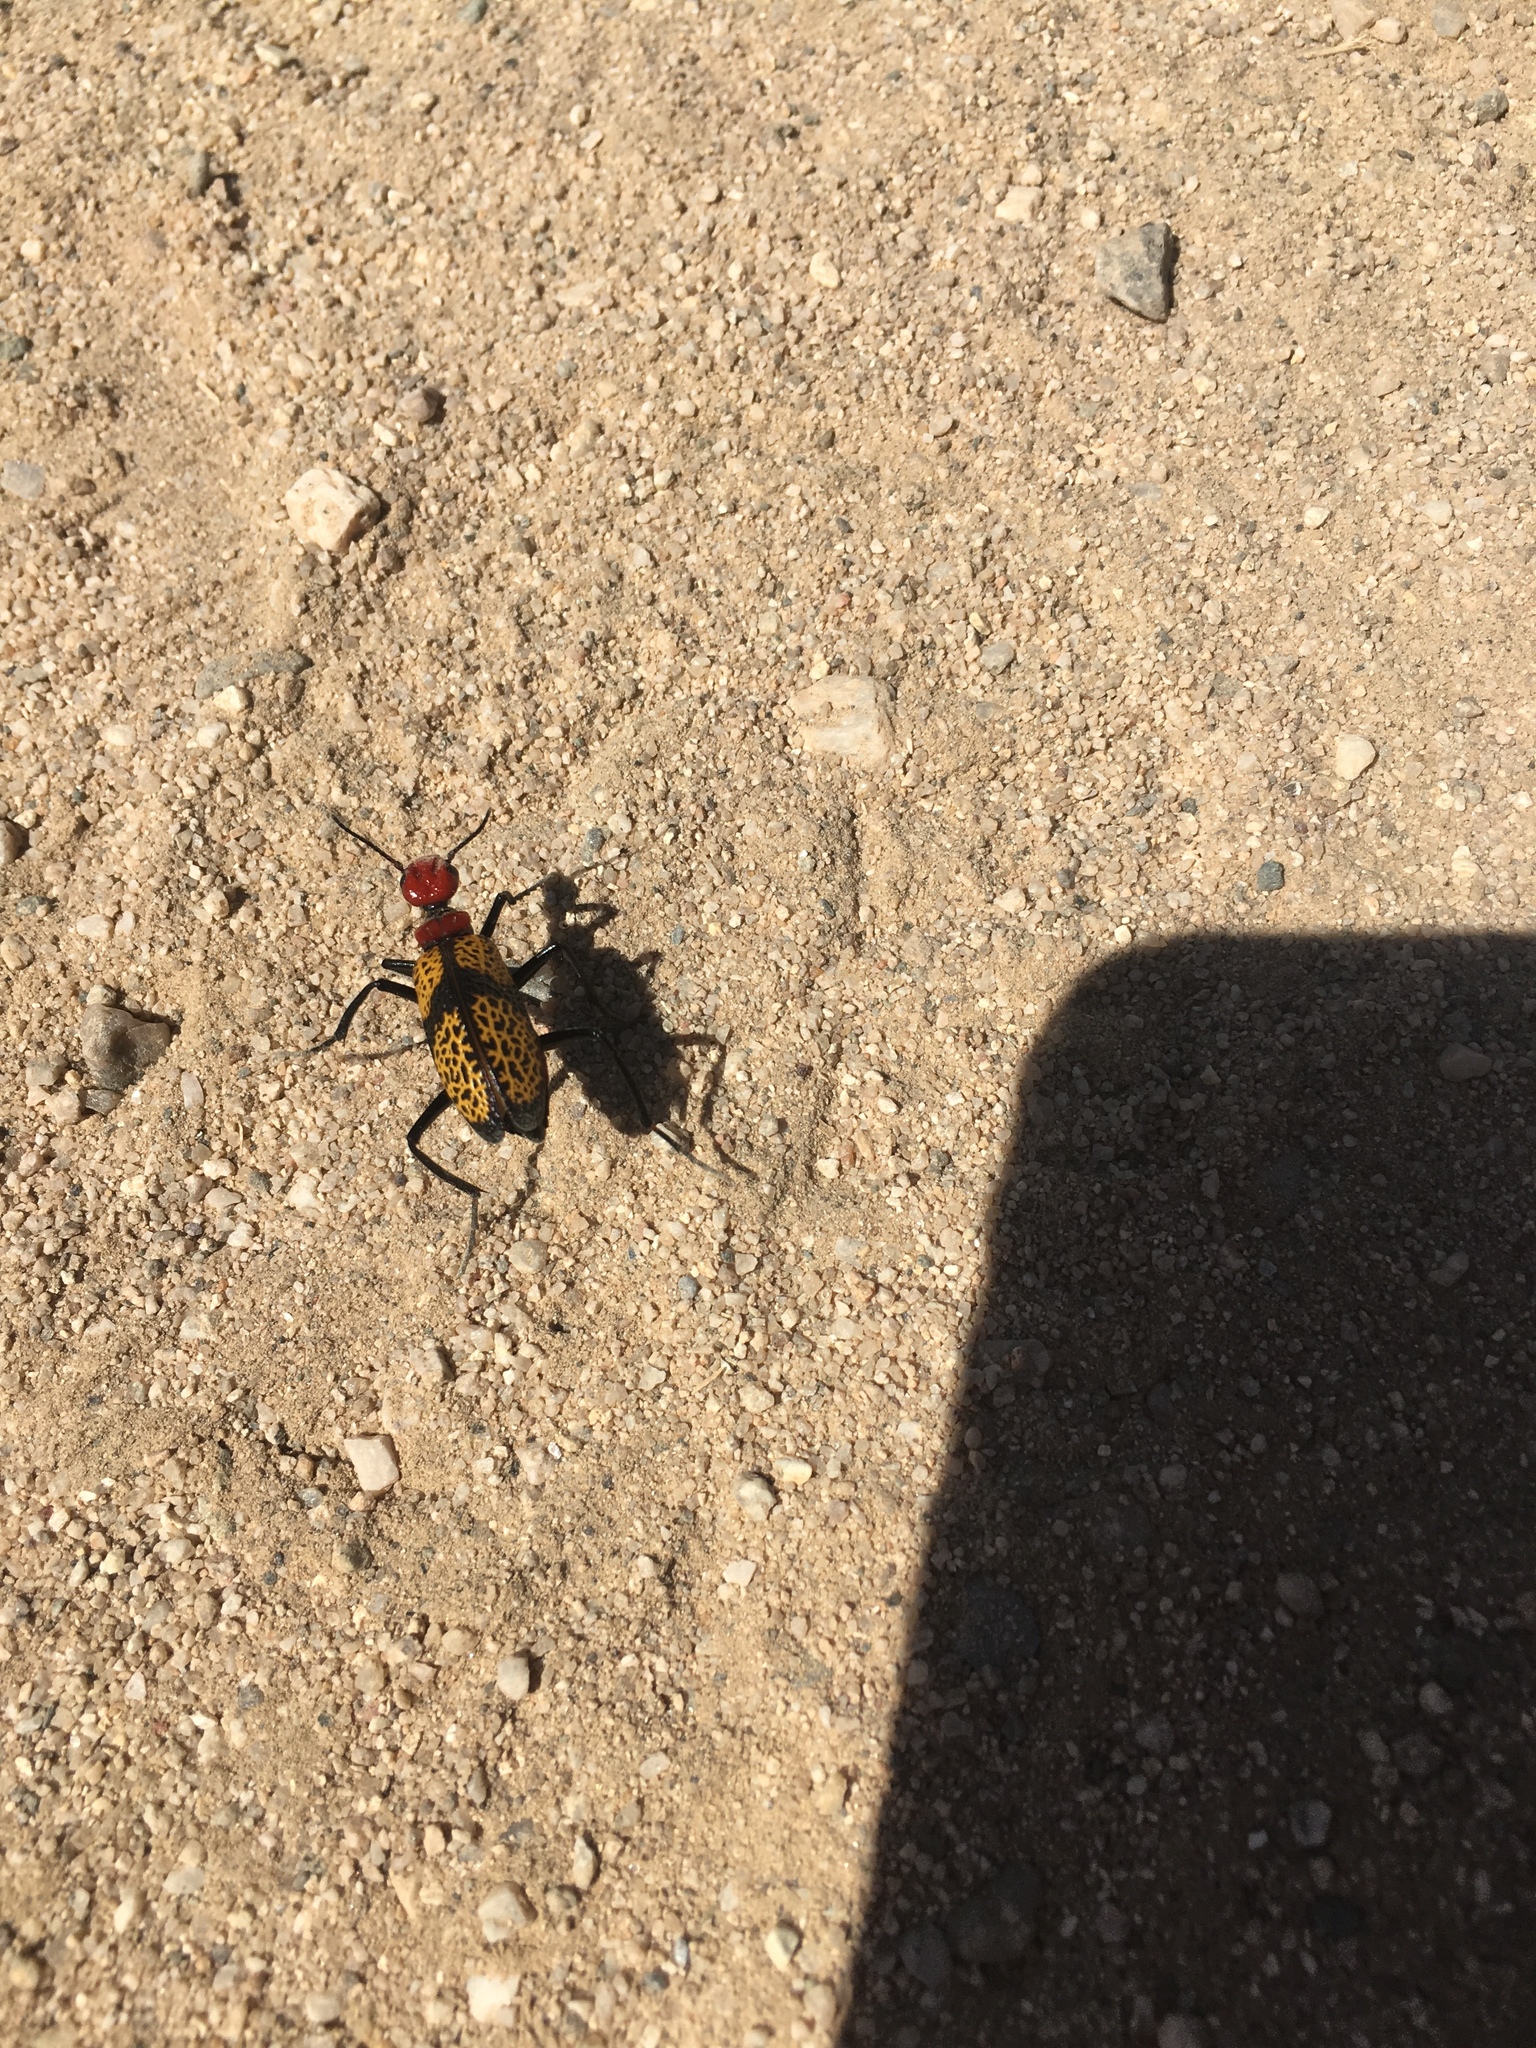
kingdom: Animalia
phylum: Arthropoda
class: Insecta
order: Coleoptera
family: Meloidae
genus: Tegrodera
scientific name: Tegrodera aloga
